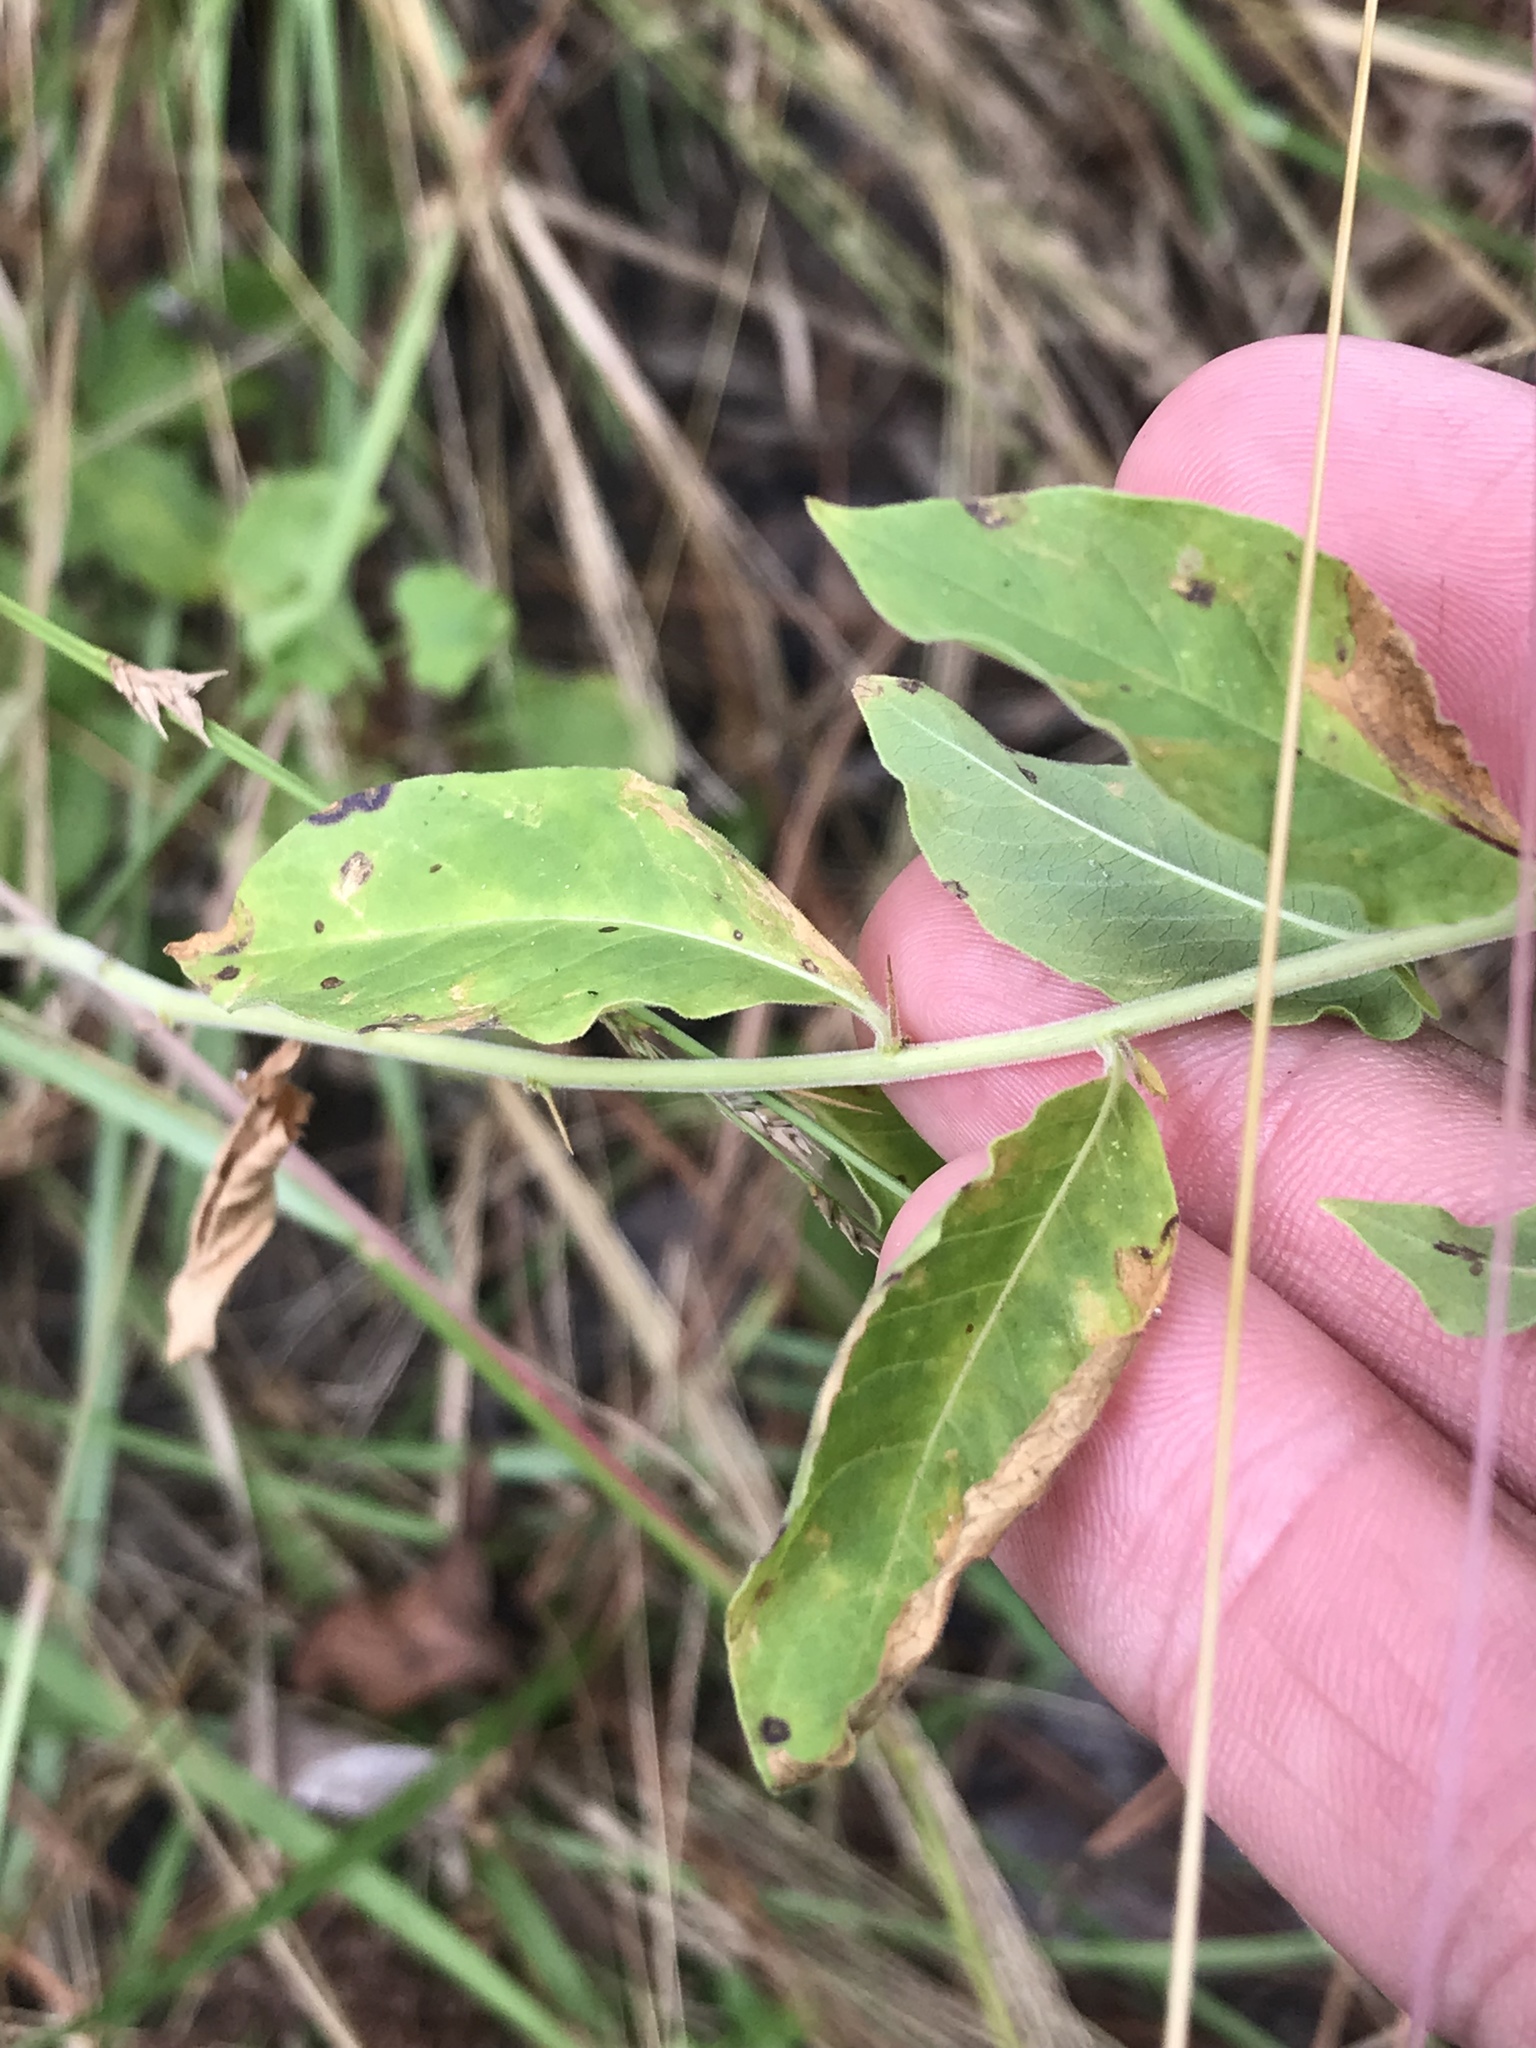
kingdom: Plantae
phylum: Tracheophyta
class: Magnoliopsida
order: Solanales
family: Hydroleaceae
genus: Hydrolea
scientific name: Hydrolea ovata
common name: Ovate false fiddleleaf
